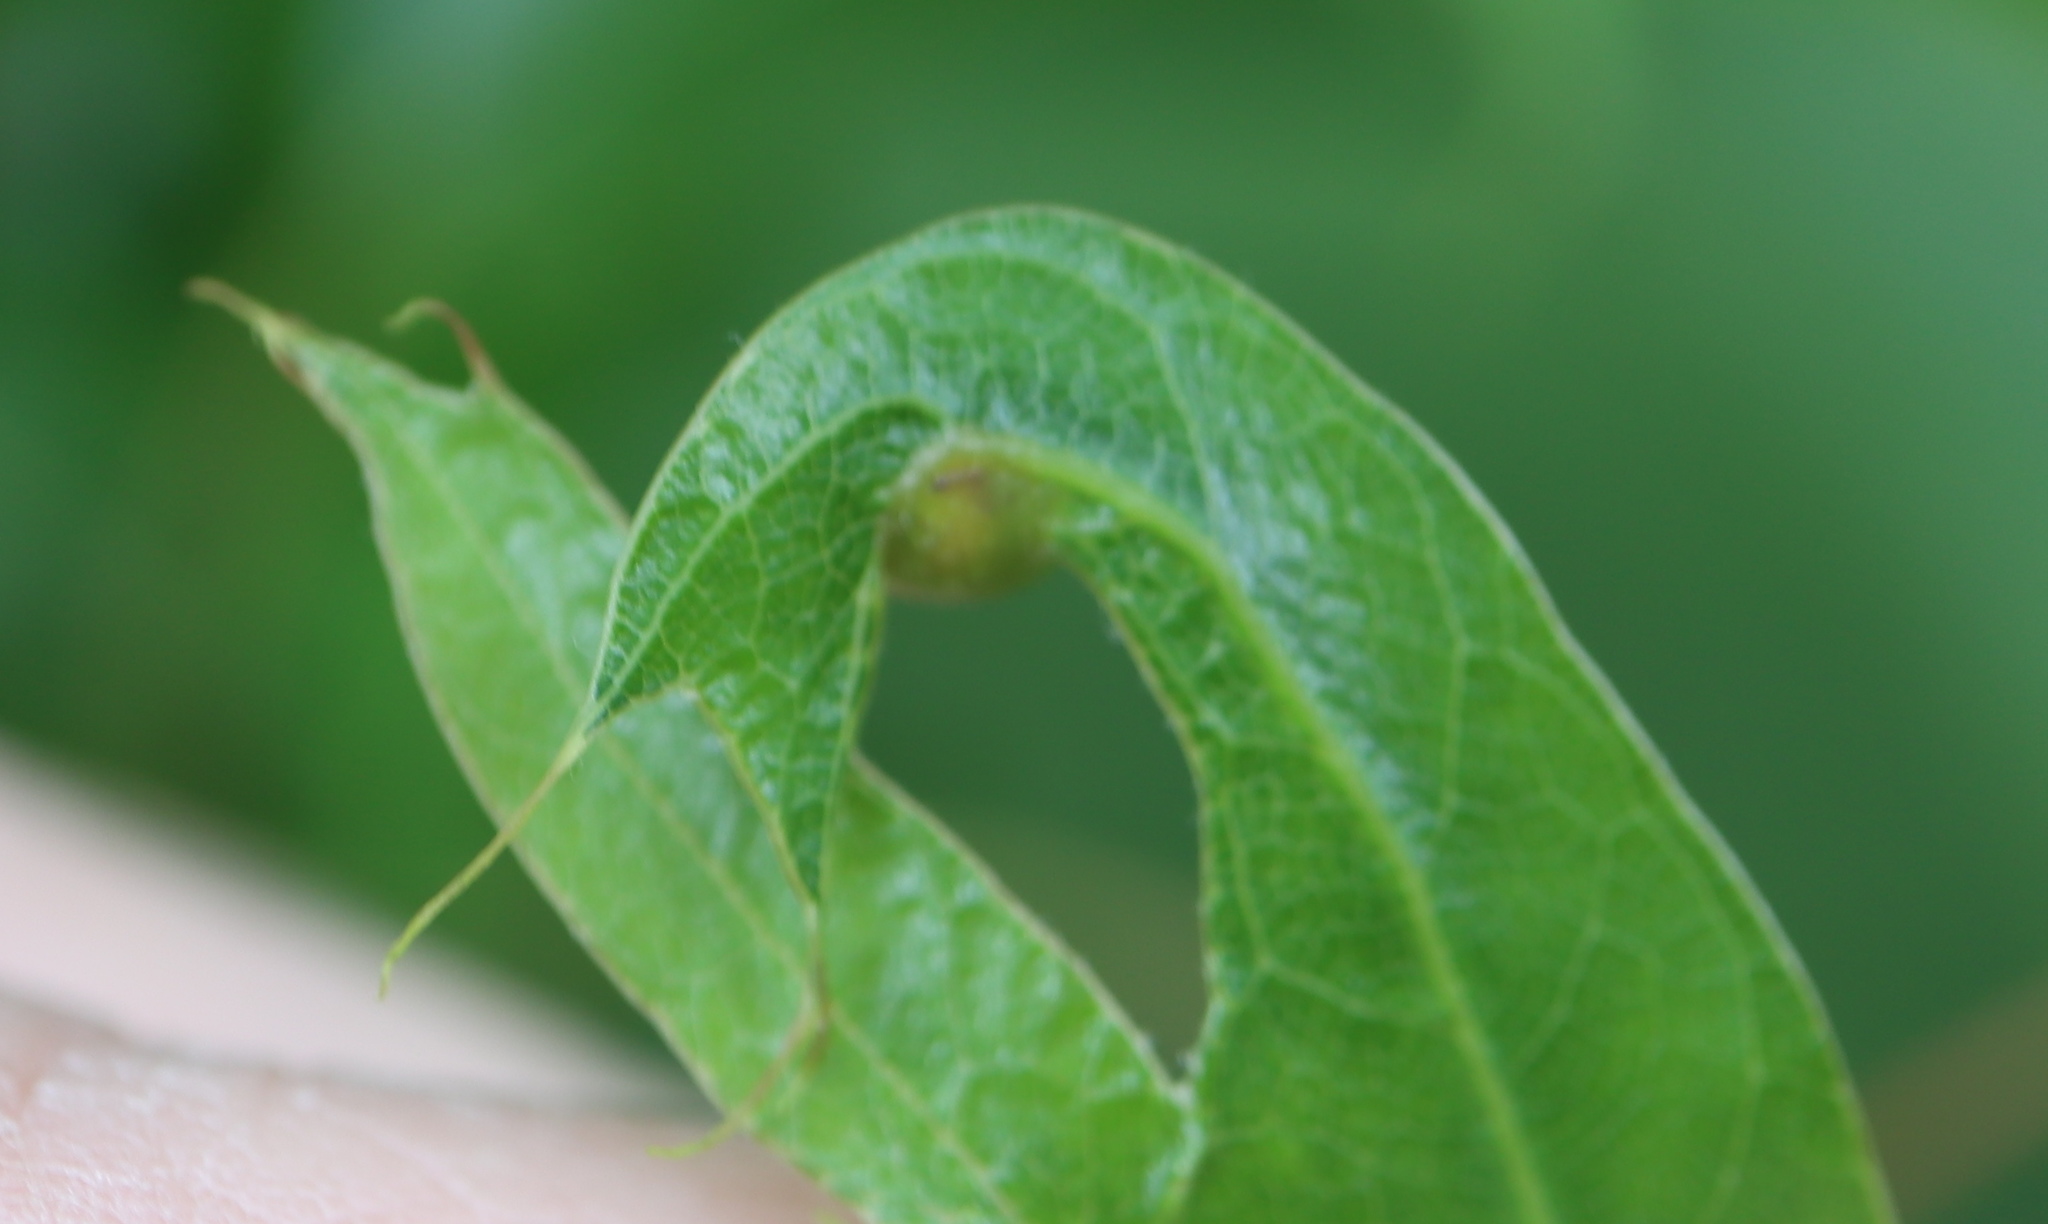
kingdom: Animalia
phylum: Arthropoda
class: Insecta
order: Hymenoptera
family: Cynipidae
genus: Amphibolips
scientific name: Amphibolips
